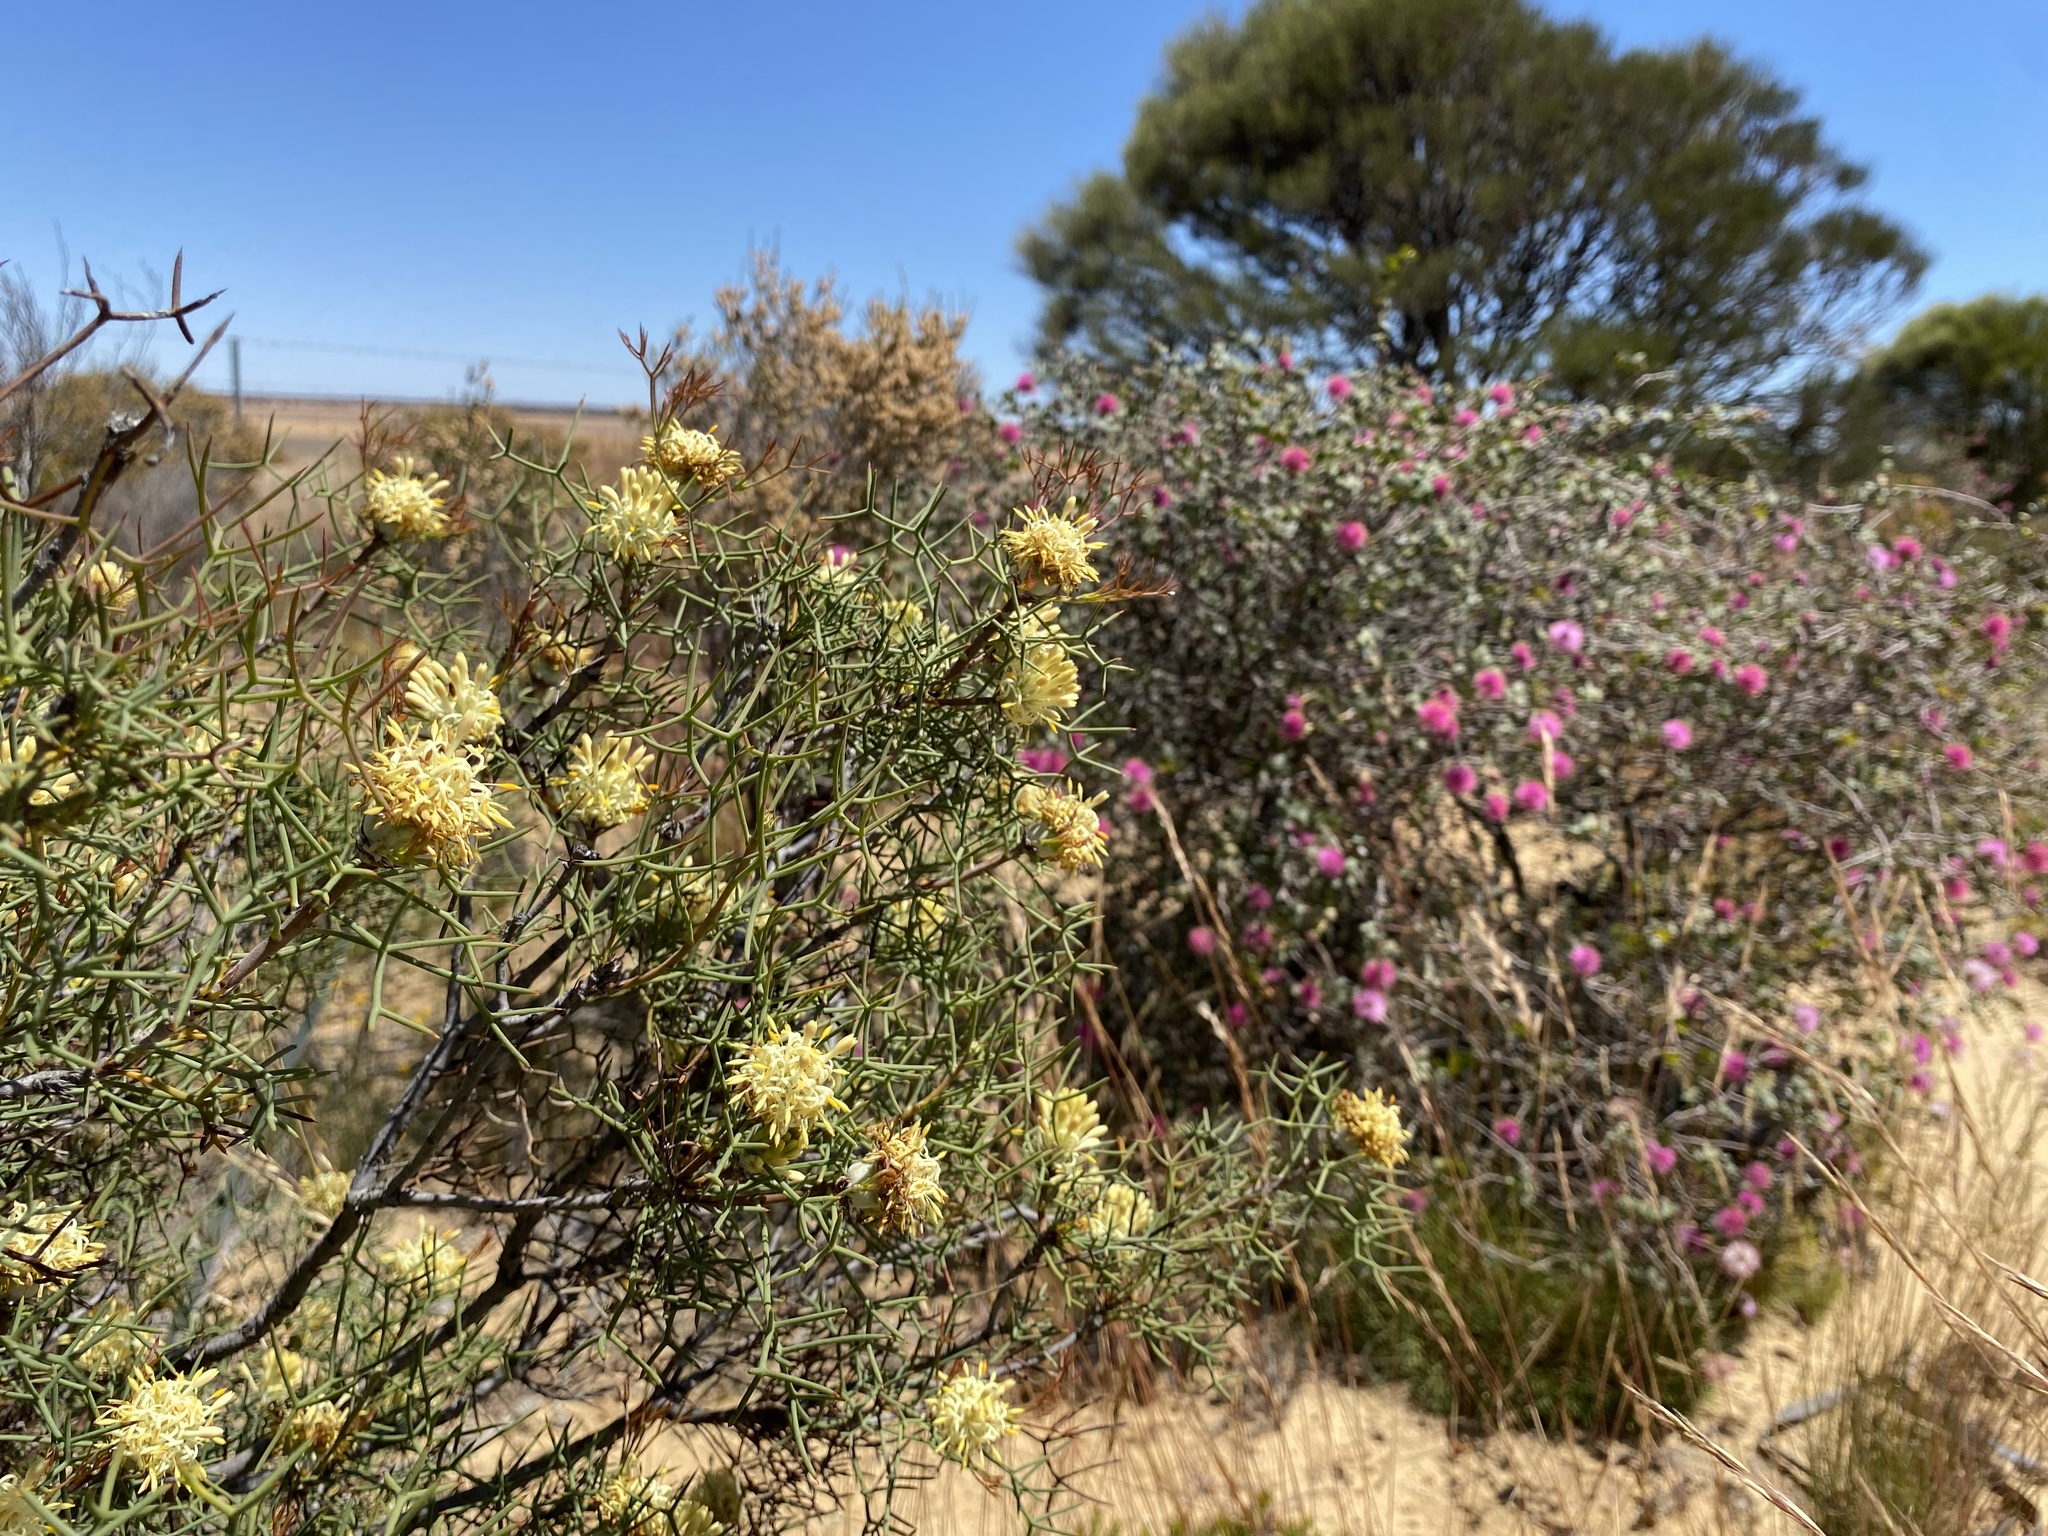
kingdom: Plantae
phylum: Tracheophyta
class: Magnoliopsida
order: Proteales
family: Proteaceae
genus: Petrophile
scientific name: Petrophile divaricata
